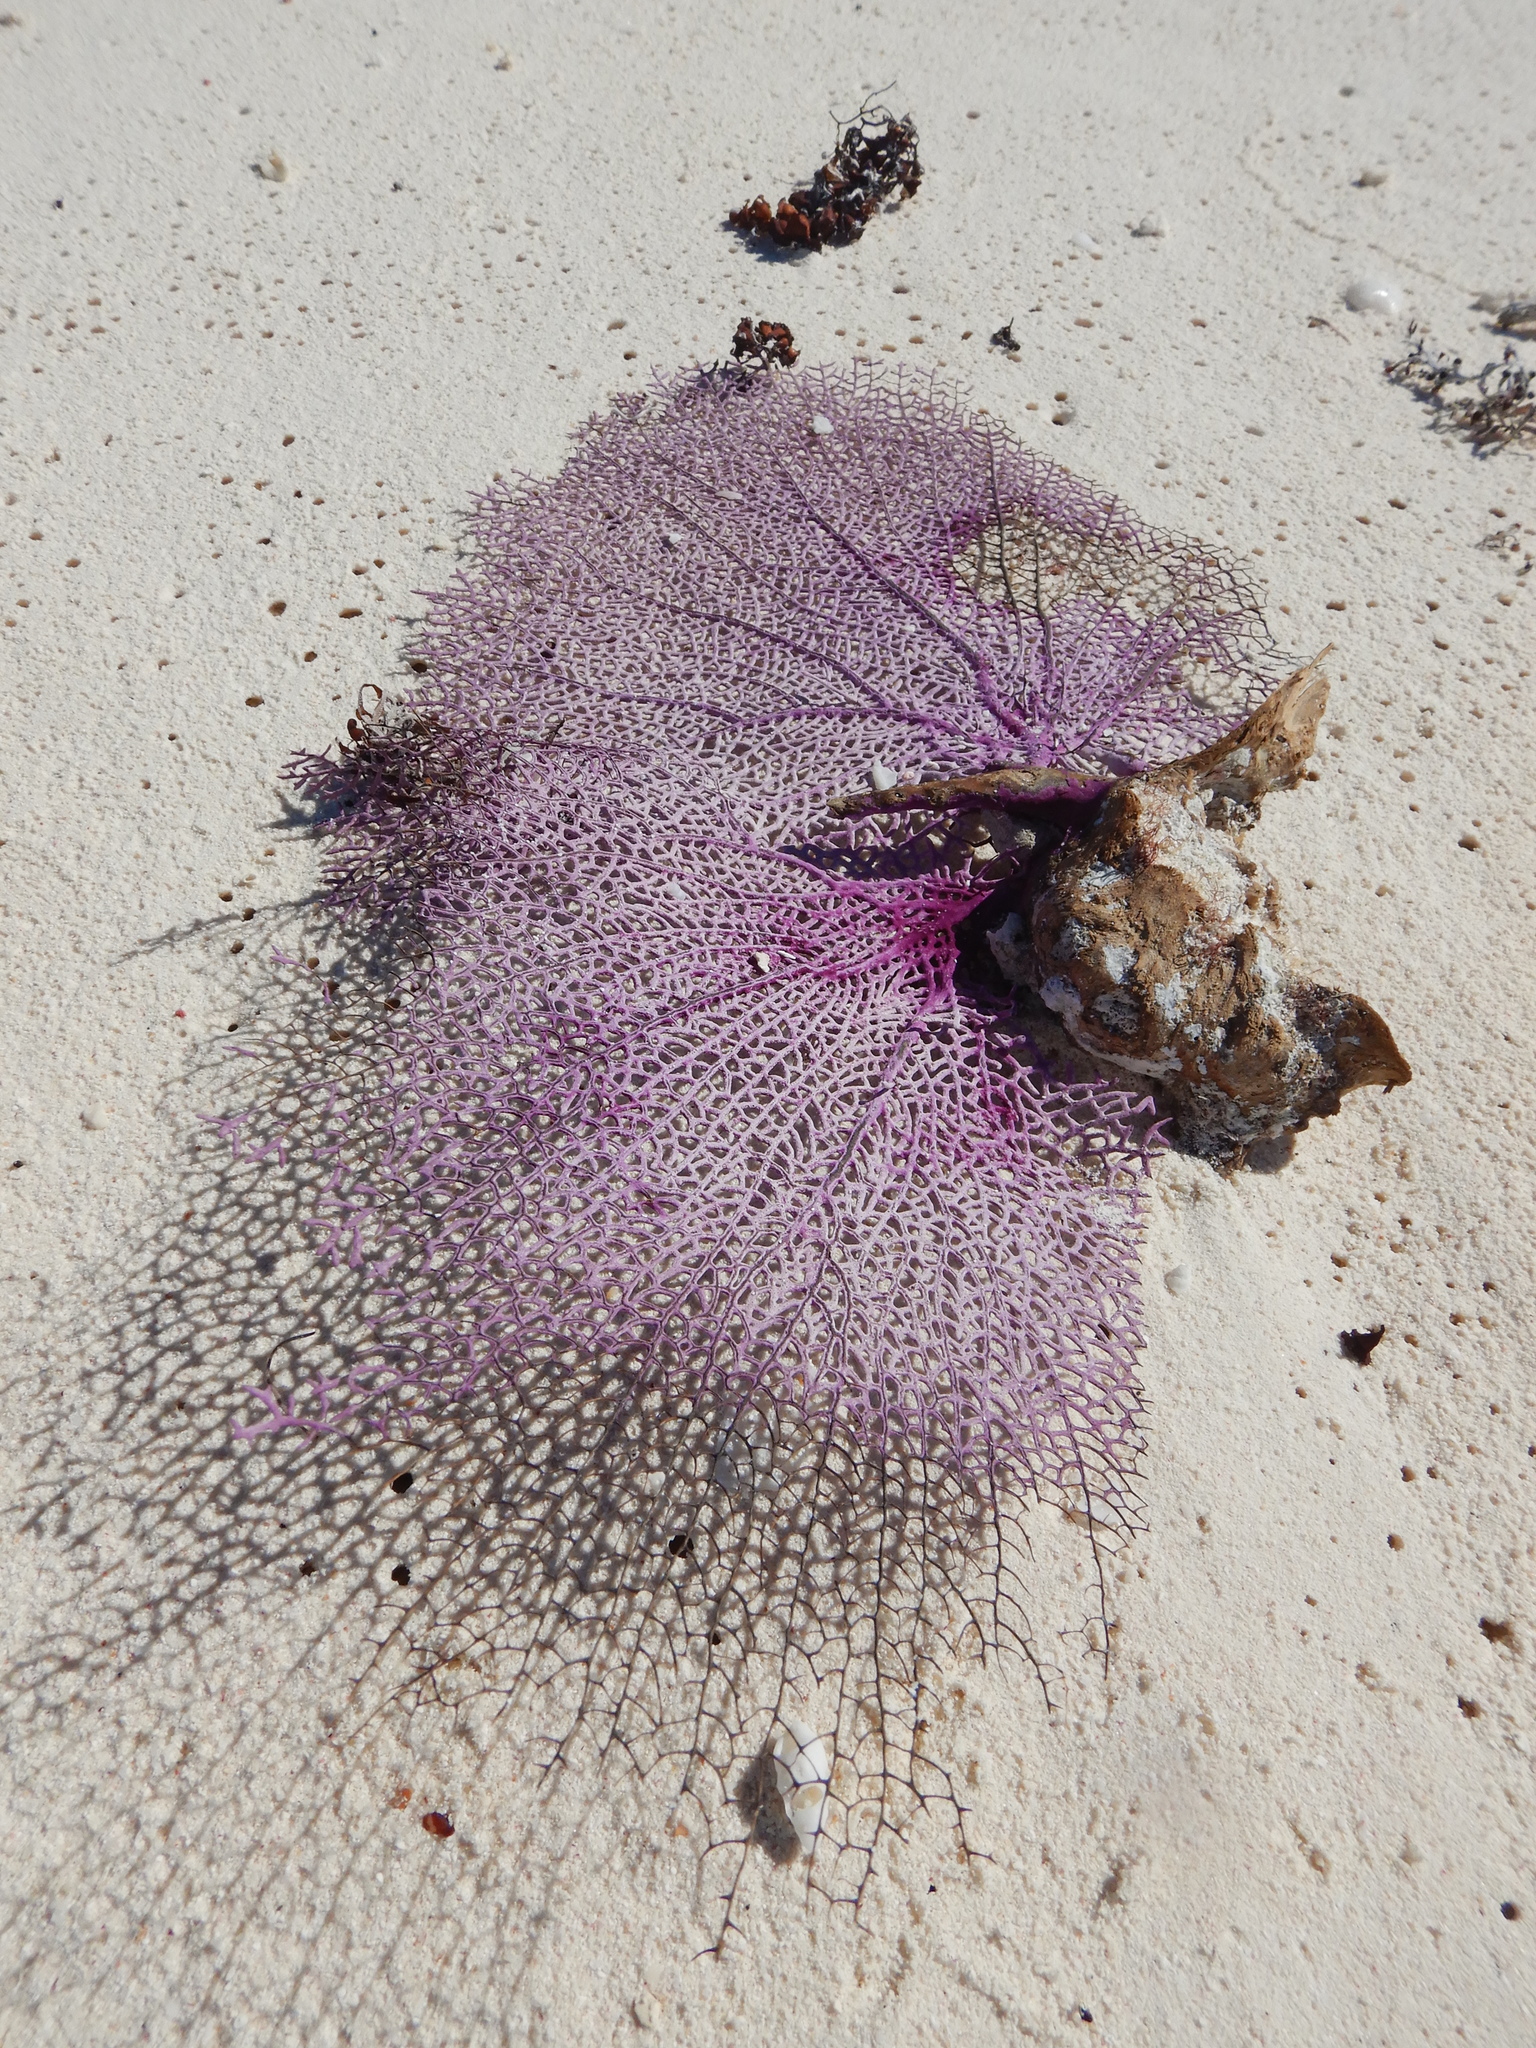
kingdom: Animalia
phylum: Cnidaria
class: Anthozoa
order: Malacalcyonacea
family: Gorgoniidae
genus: Gorgonia
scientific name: Gorgonia ventalina
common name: Common sea fan
